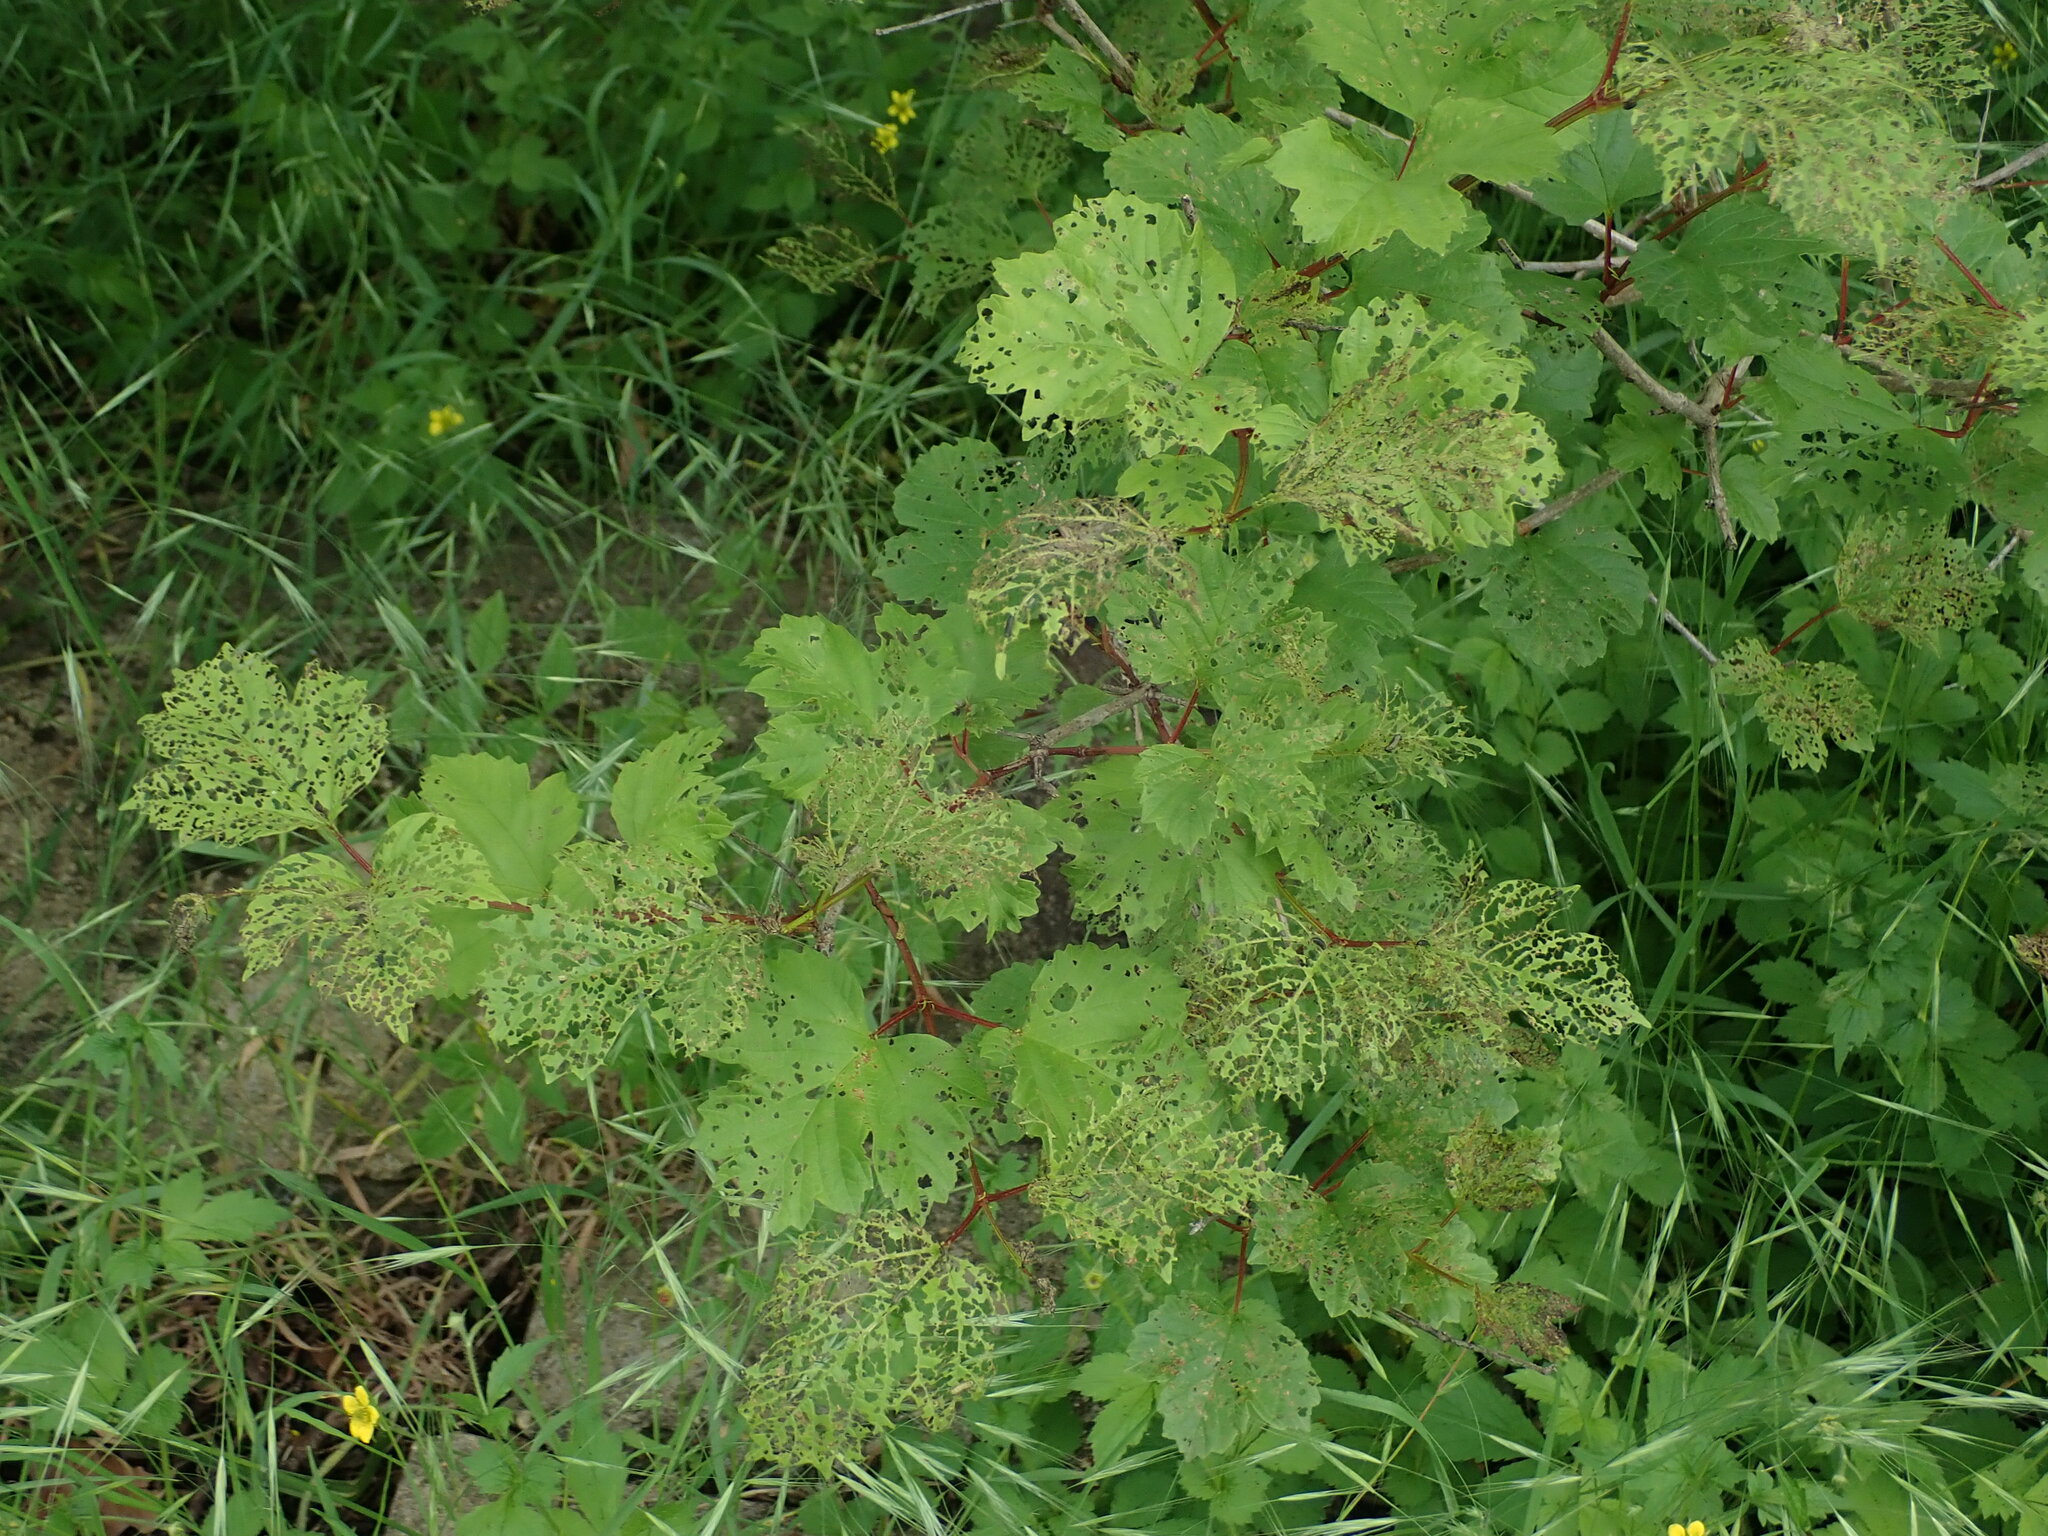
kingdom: Animalia
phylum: Arthropoda
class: Insecta
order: Coleoptera
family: Chrysomelidae
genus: Pyrrhalta
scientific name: Pyrrhalta viburni
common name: Guelder-rose leaf beetle
